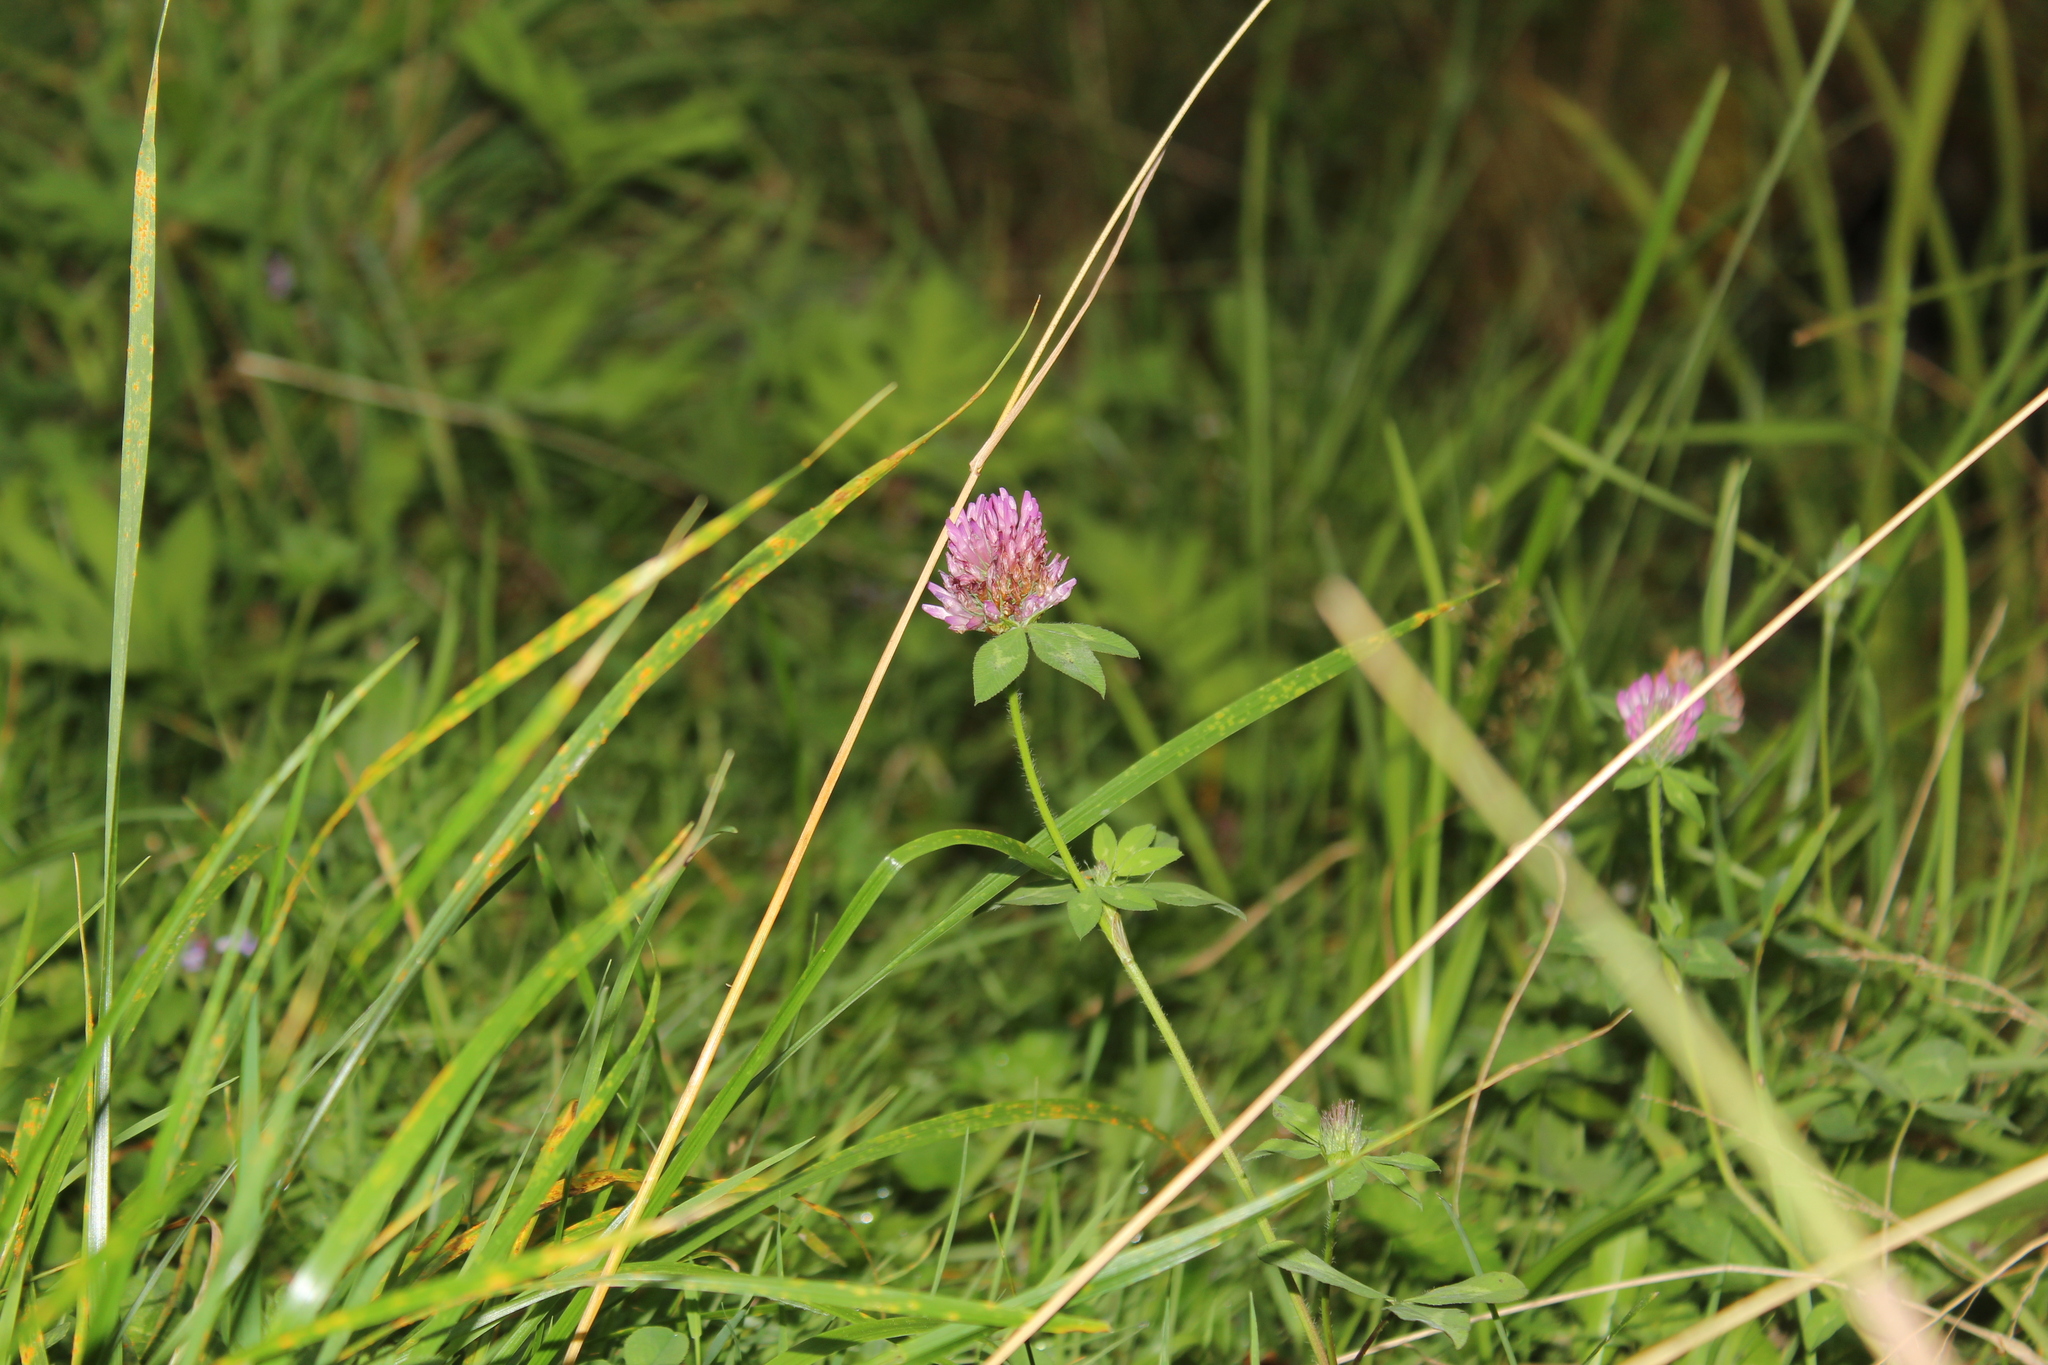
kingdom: Plantae
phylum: Tracheophyta
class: Magnoliopsida
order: Fabales
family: Fabaceae
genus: Trifolium
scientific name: Trifolium pratense
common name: Red clover
